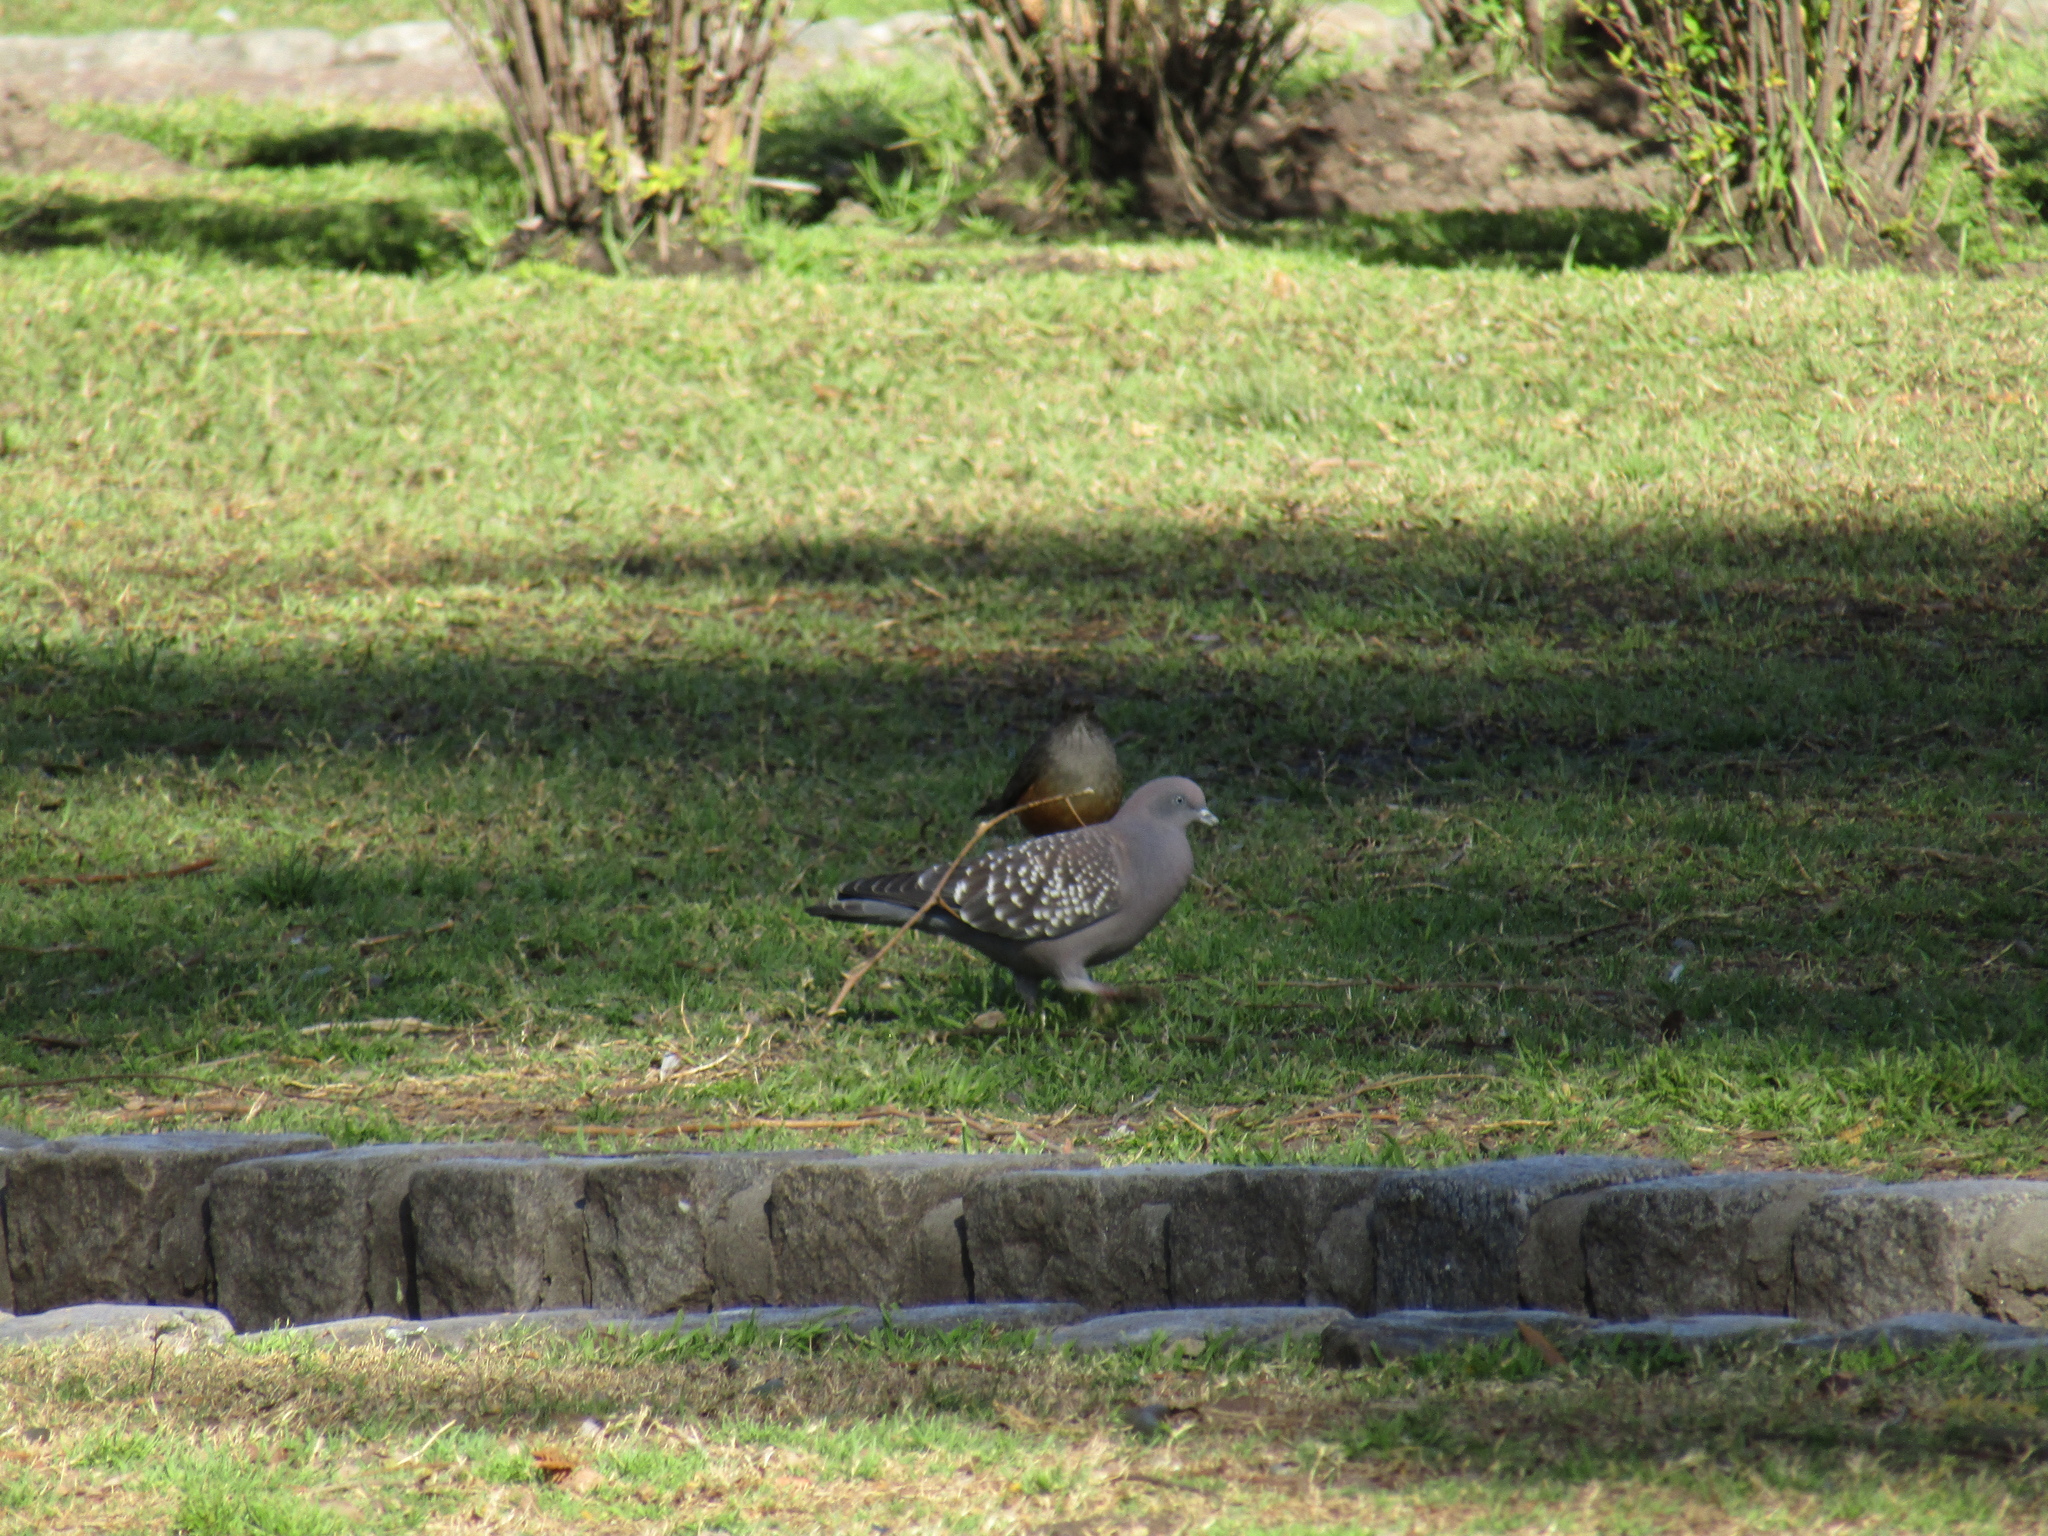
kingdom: Animalia
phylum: Chordata
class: Aves
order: Columbiformes
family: Columbidae
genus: Patagioenas
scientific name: Patagioenas maculosa
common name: Spot-winged pigeon
